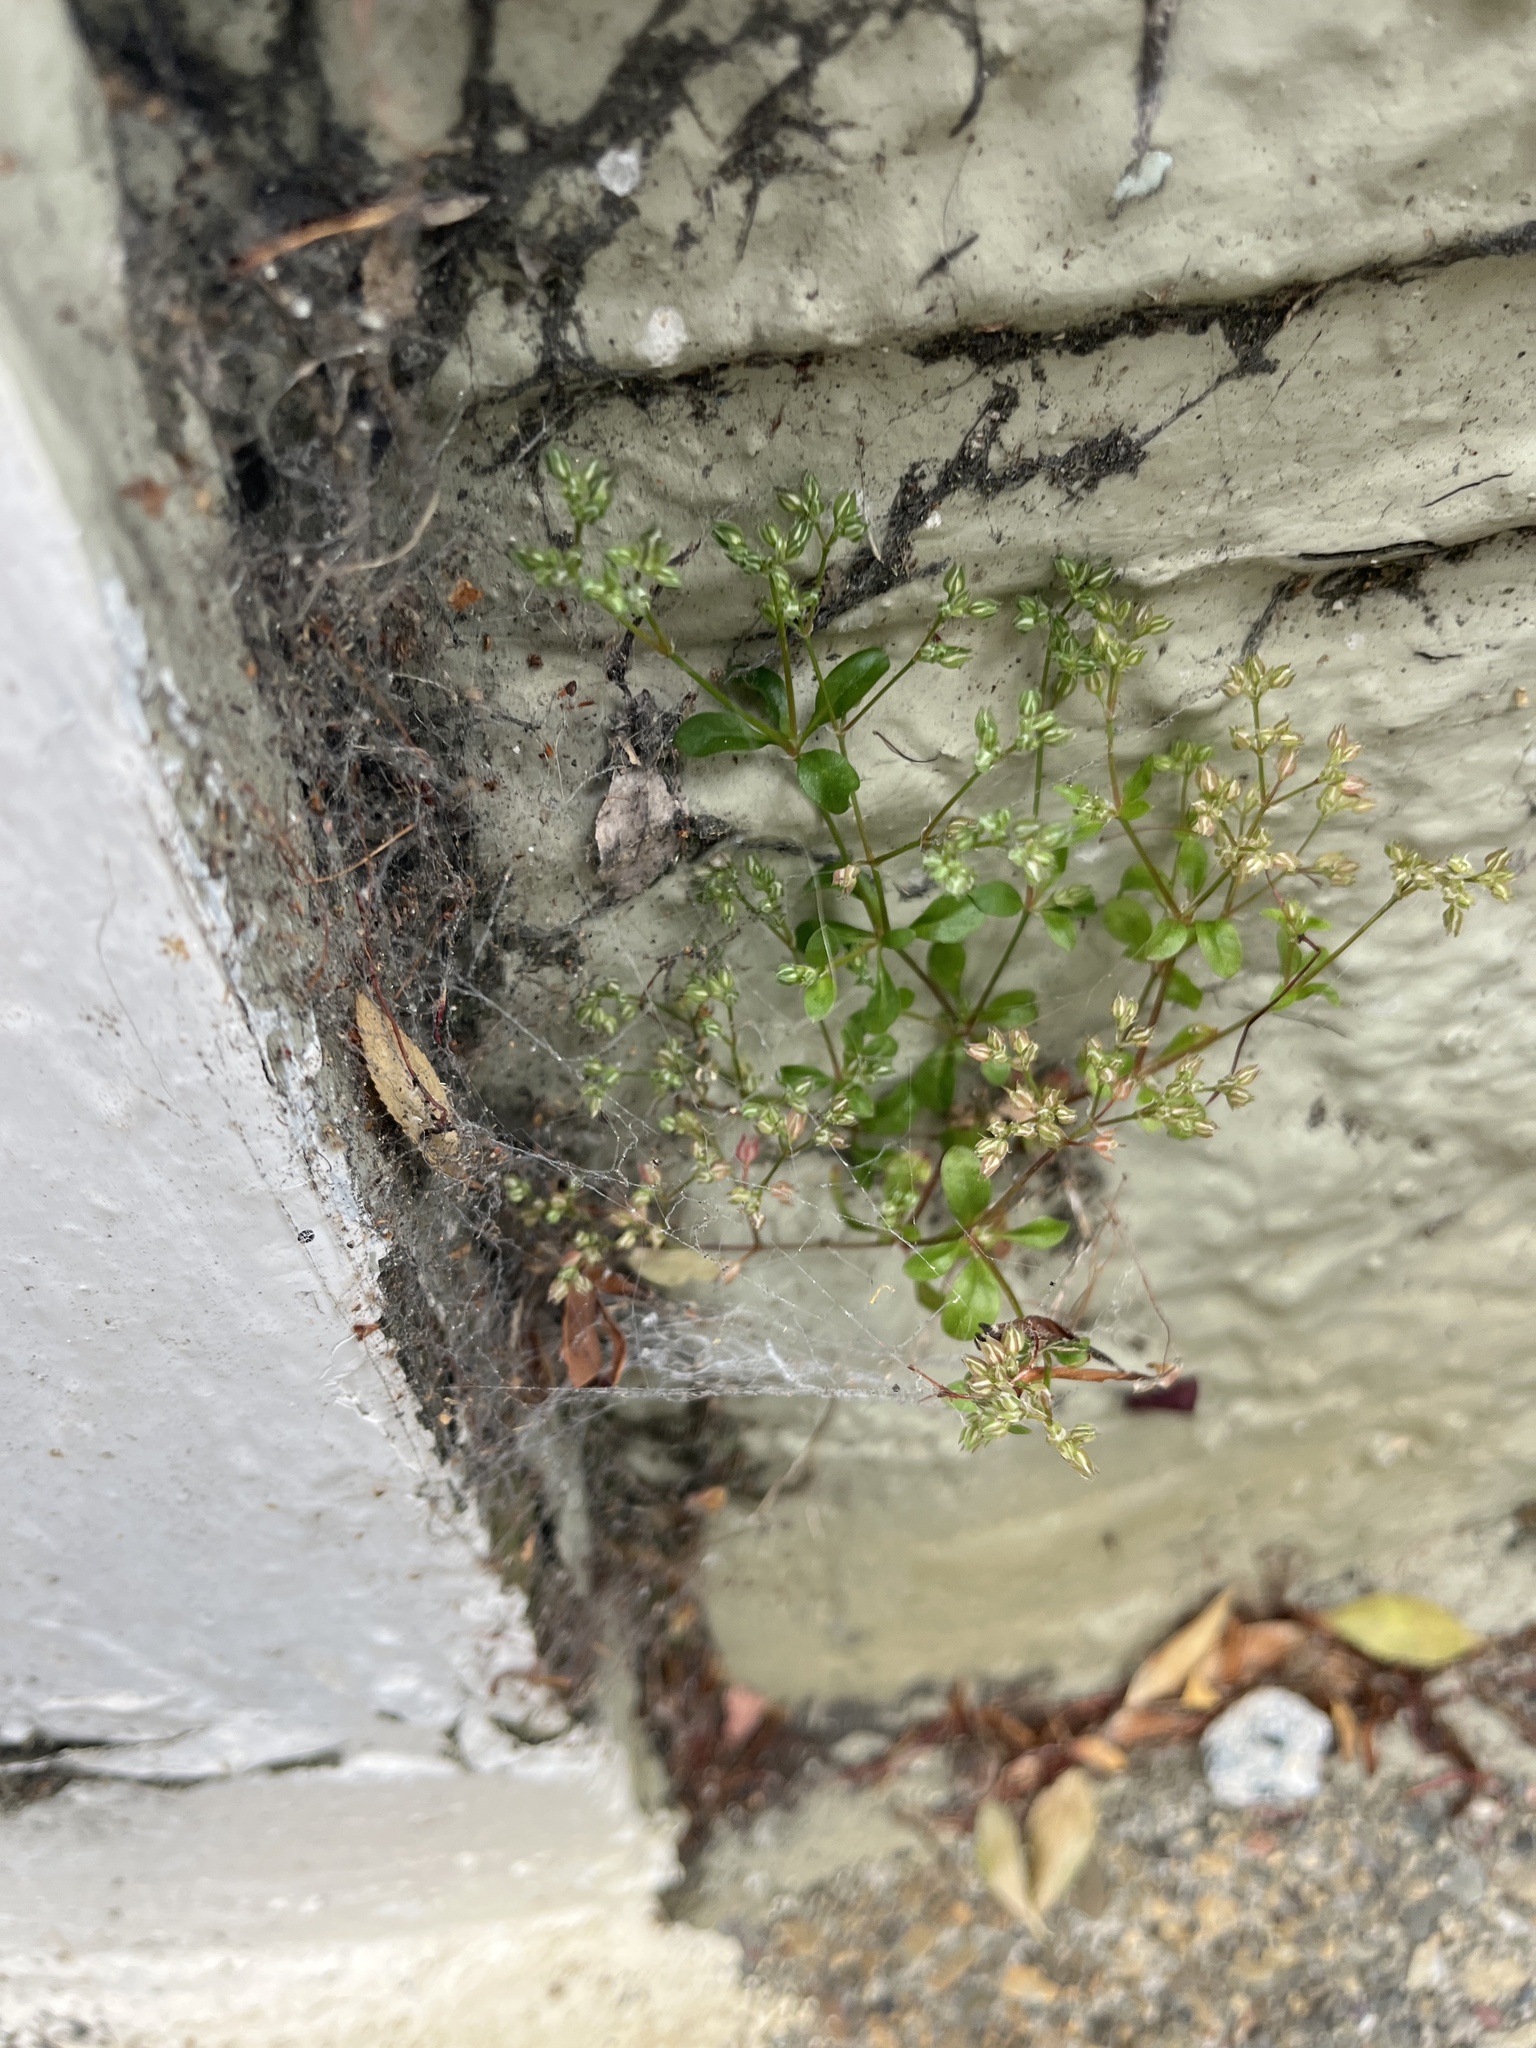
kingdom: Plantae
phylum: Tracheophyta
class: Magnoliopsida
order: Caryophyllales
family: Caryophyllaceae
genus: Polycarpon
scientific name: Polycarpon tetraphyllum
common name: Four-leaved all-seed
